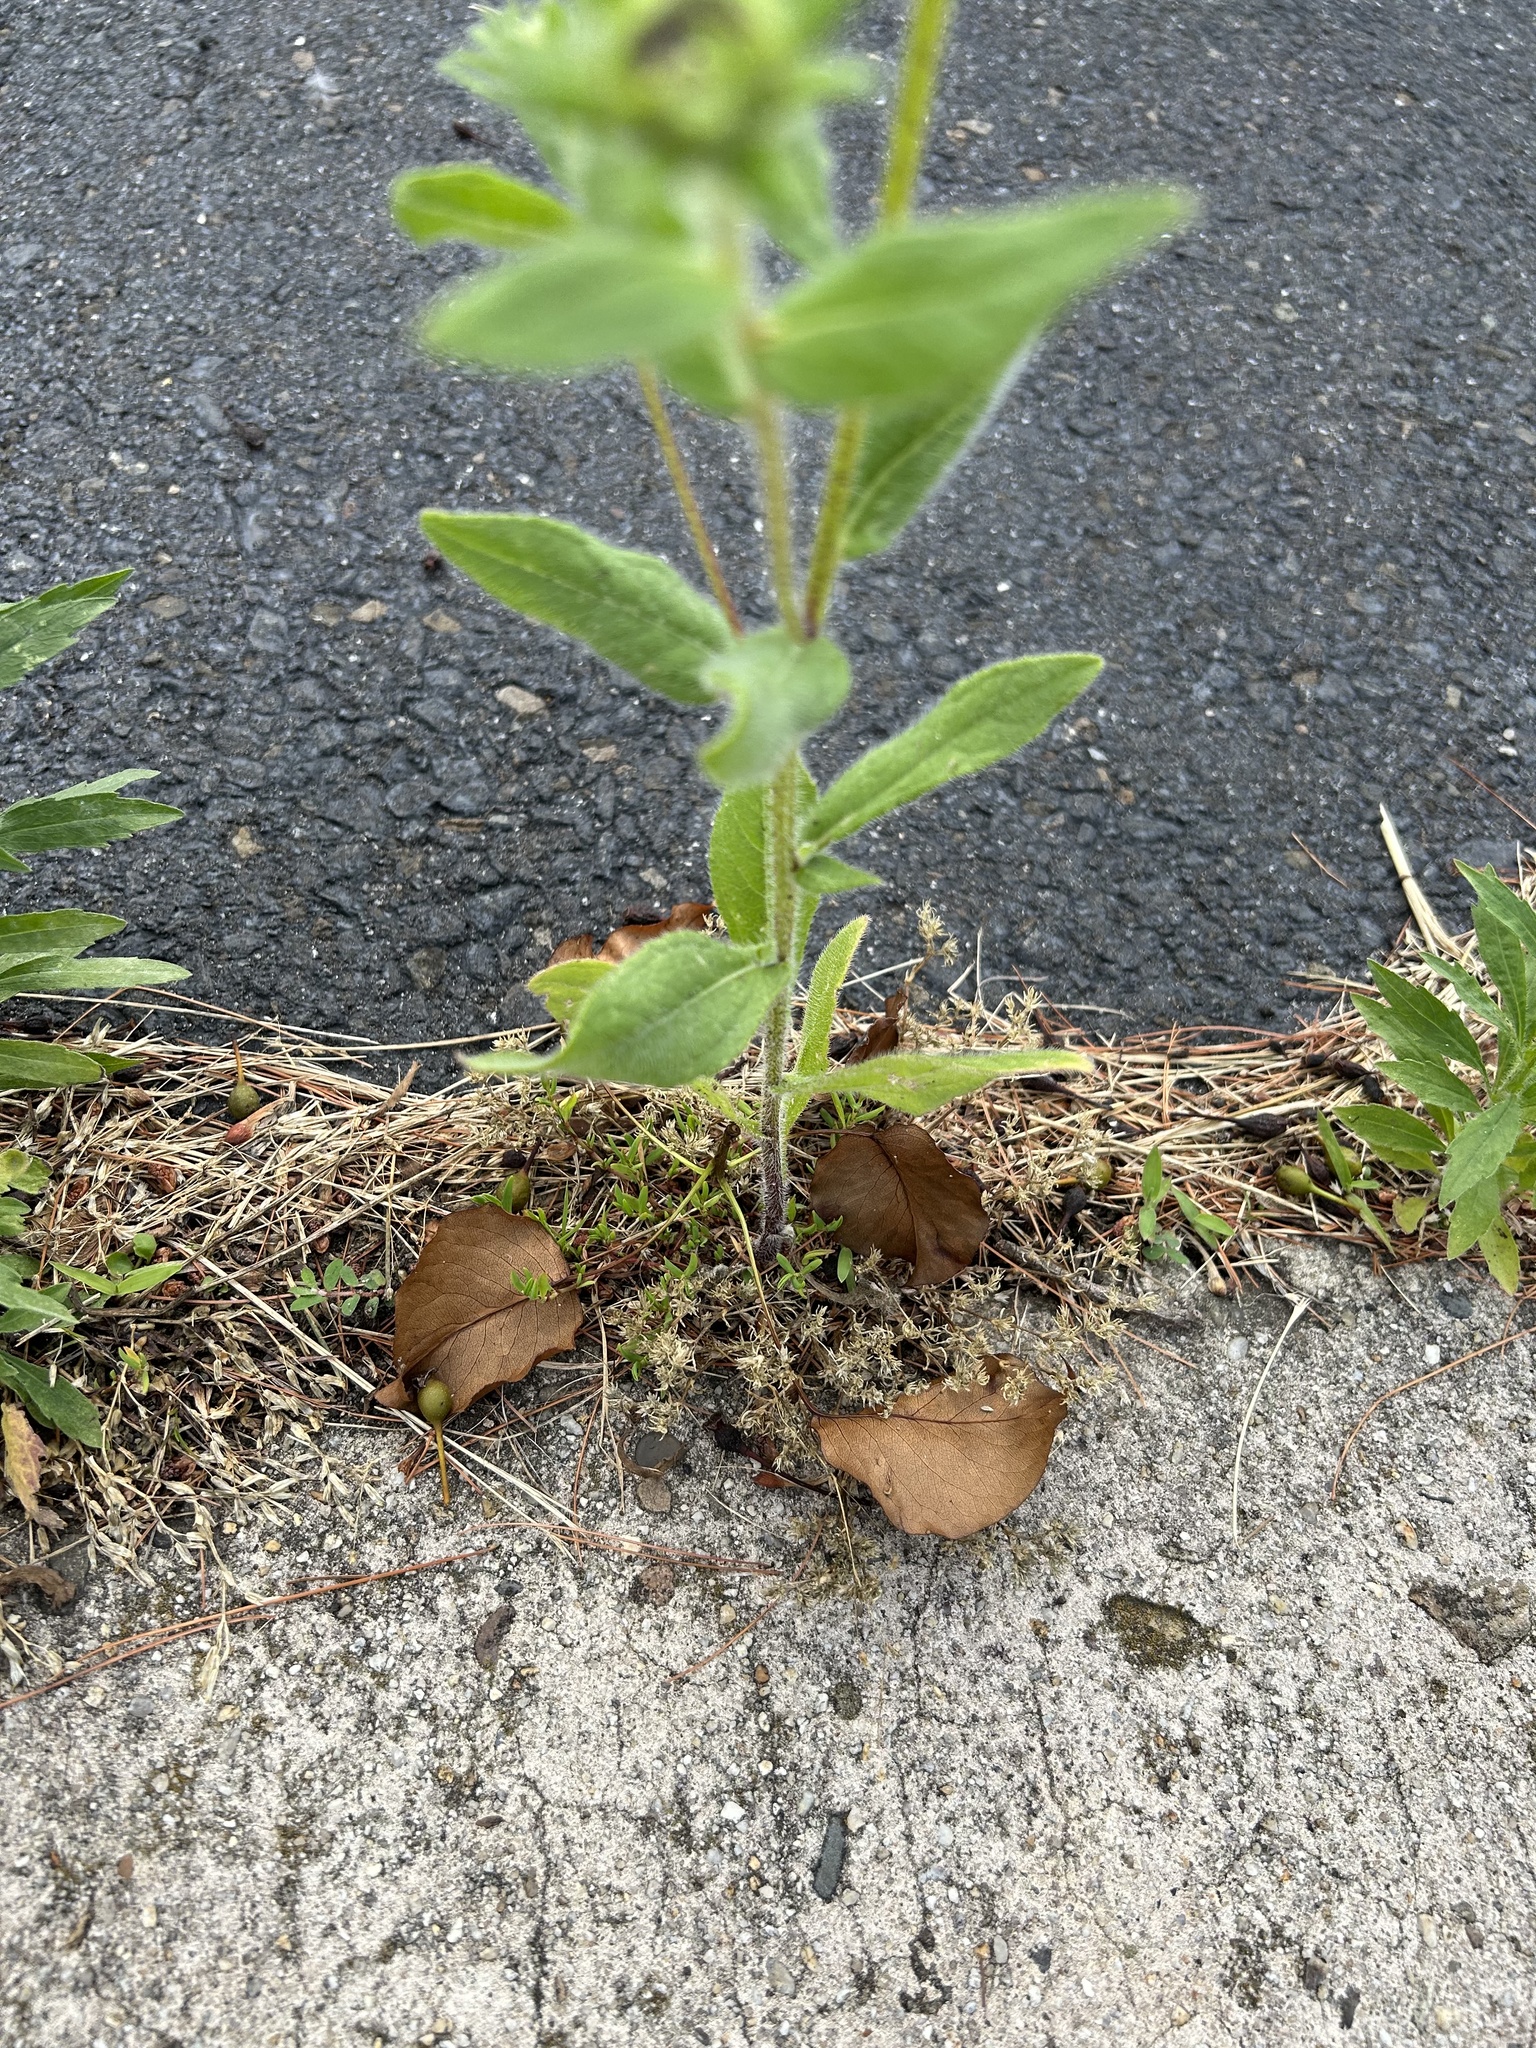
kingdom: Plantae
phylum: Tracheophyta
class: Magnoliopsida
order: Asterales
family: Asteraceae
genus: Rudbeckia
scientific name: Rudbeckia hirta
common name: Black-eyed-susan
